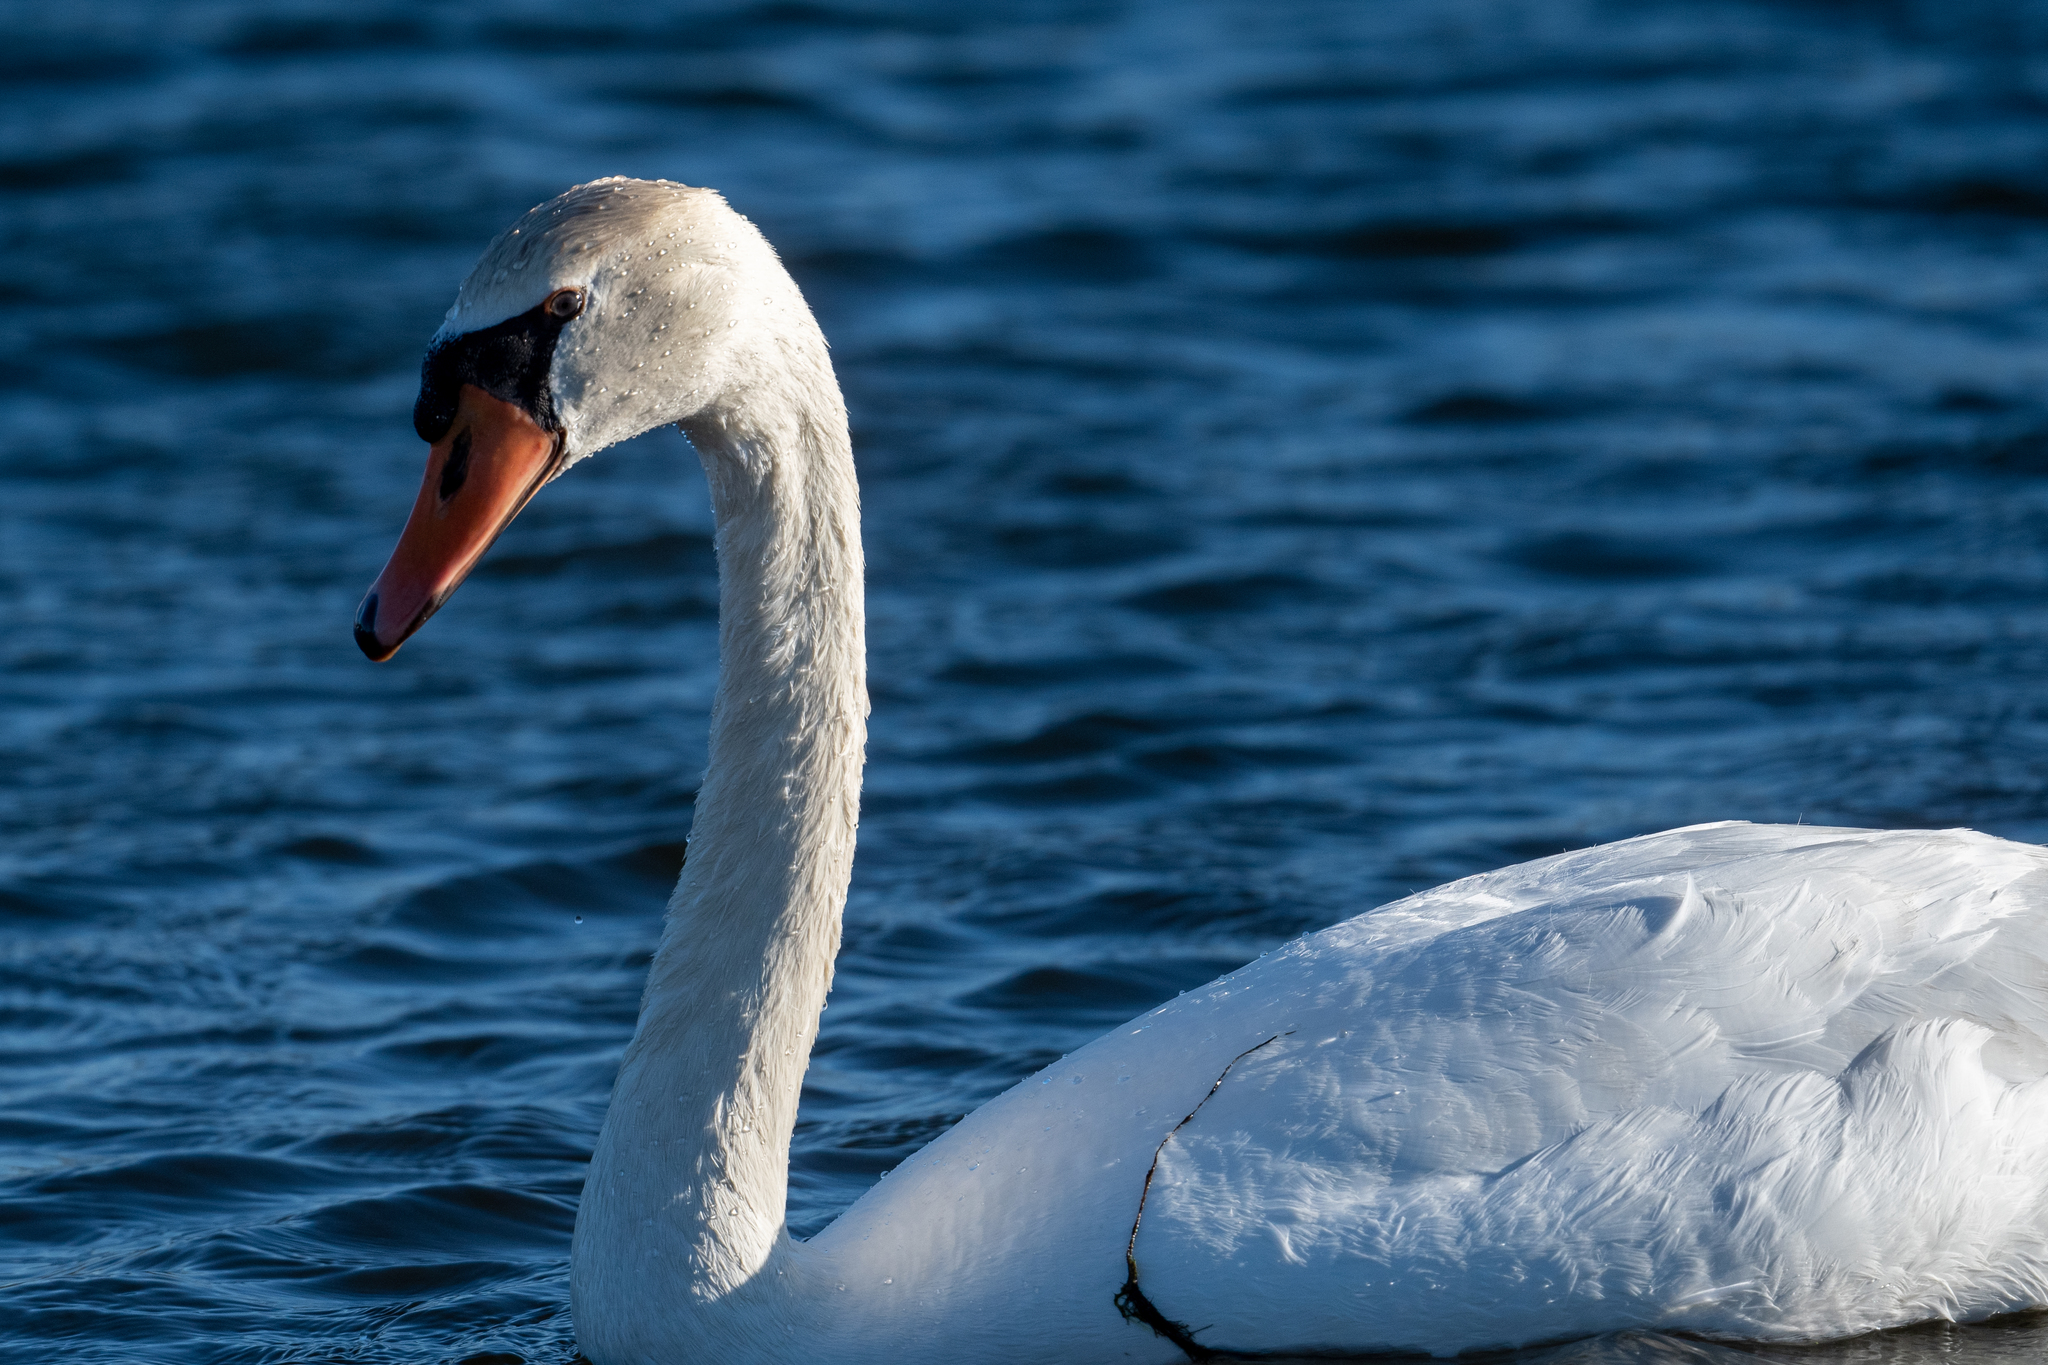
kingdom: Animalia
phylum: Chordata
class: Aves
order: Anseriformes
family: Anatidae
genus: Cygnus
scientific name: Cygnus olor
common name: Mute swan
